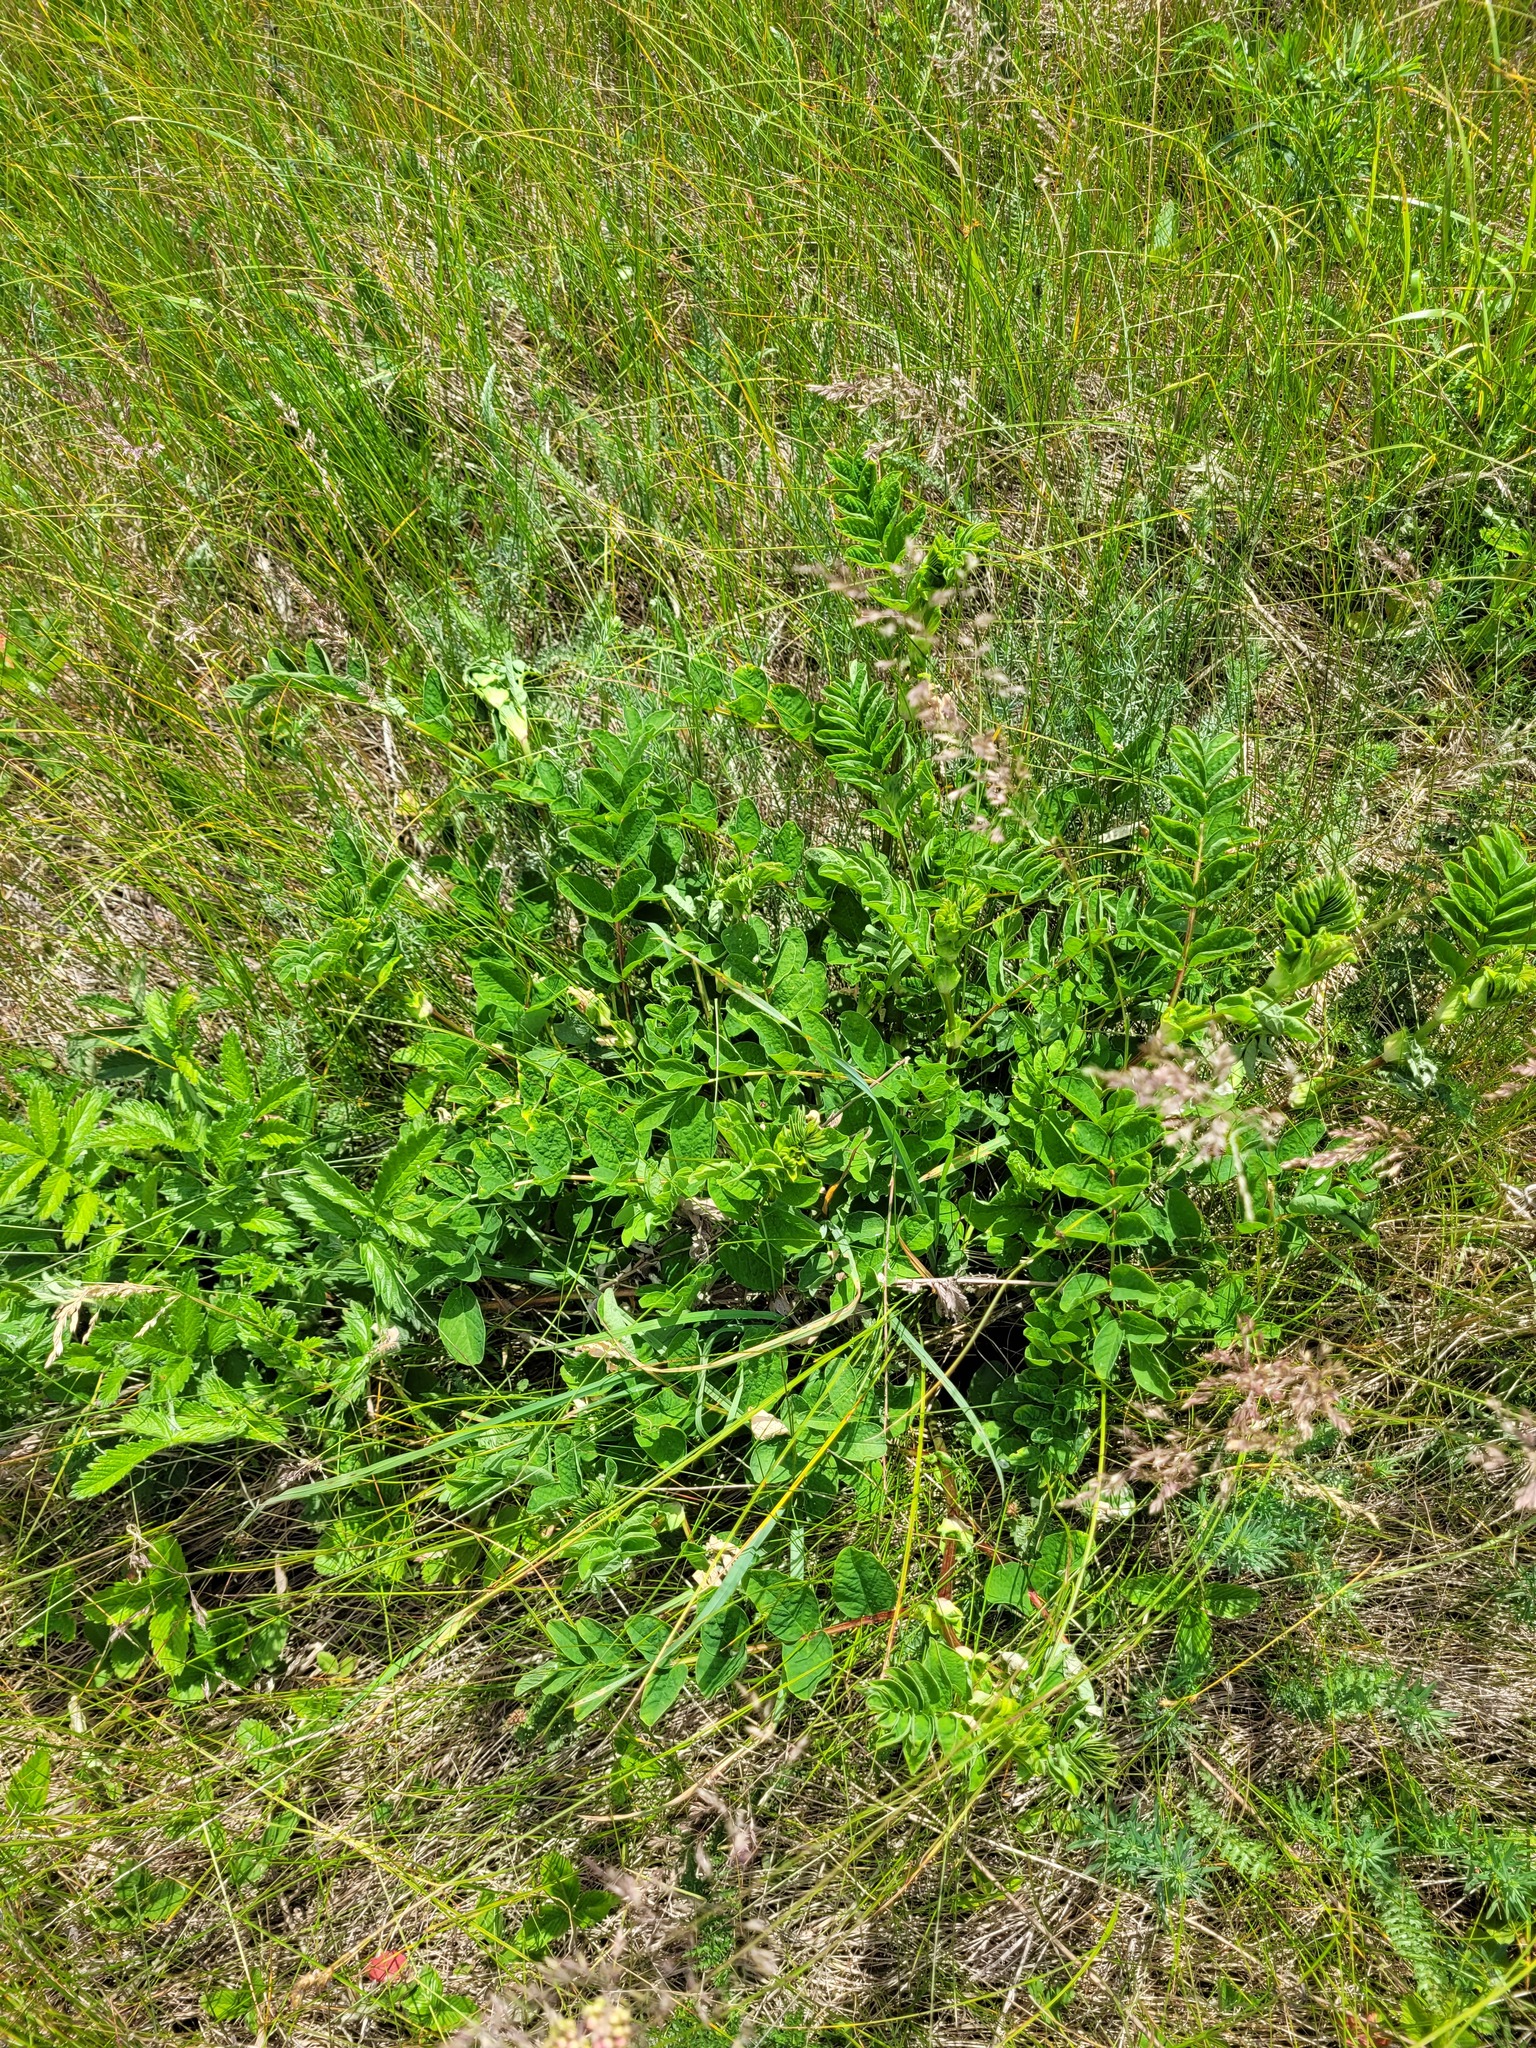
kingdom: Plantae
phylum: Tracheophyta
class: Magnoliopsida
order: Fabales
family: Fabaceae
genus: Astragalus
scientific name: Astragalus glycyphyllos
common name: Wild liquorice
